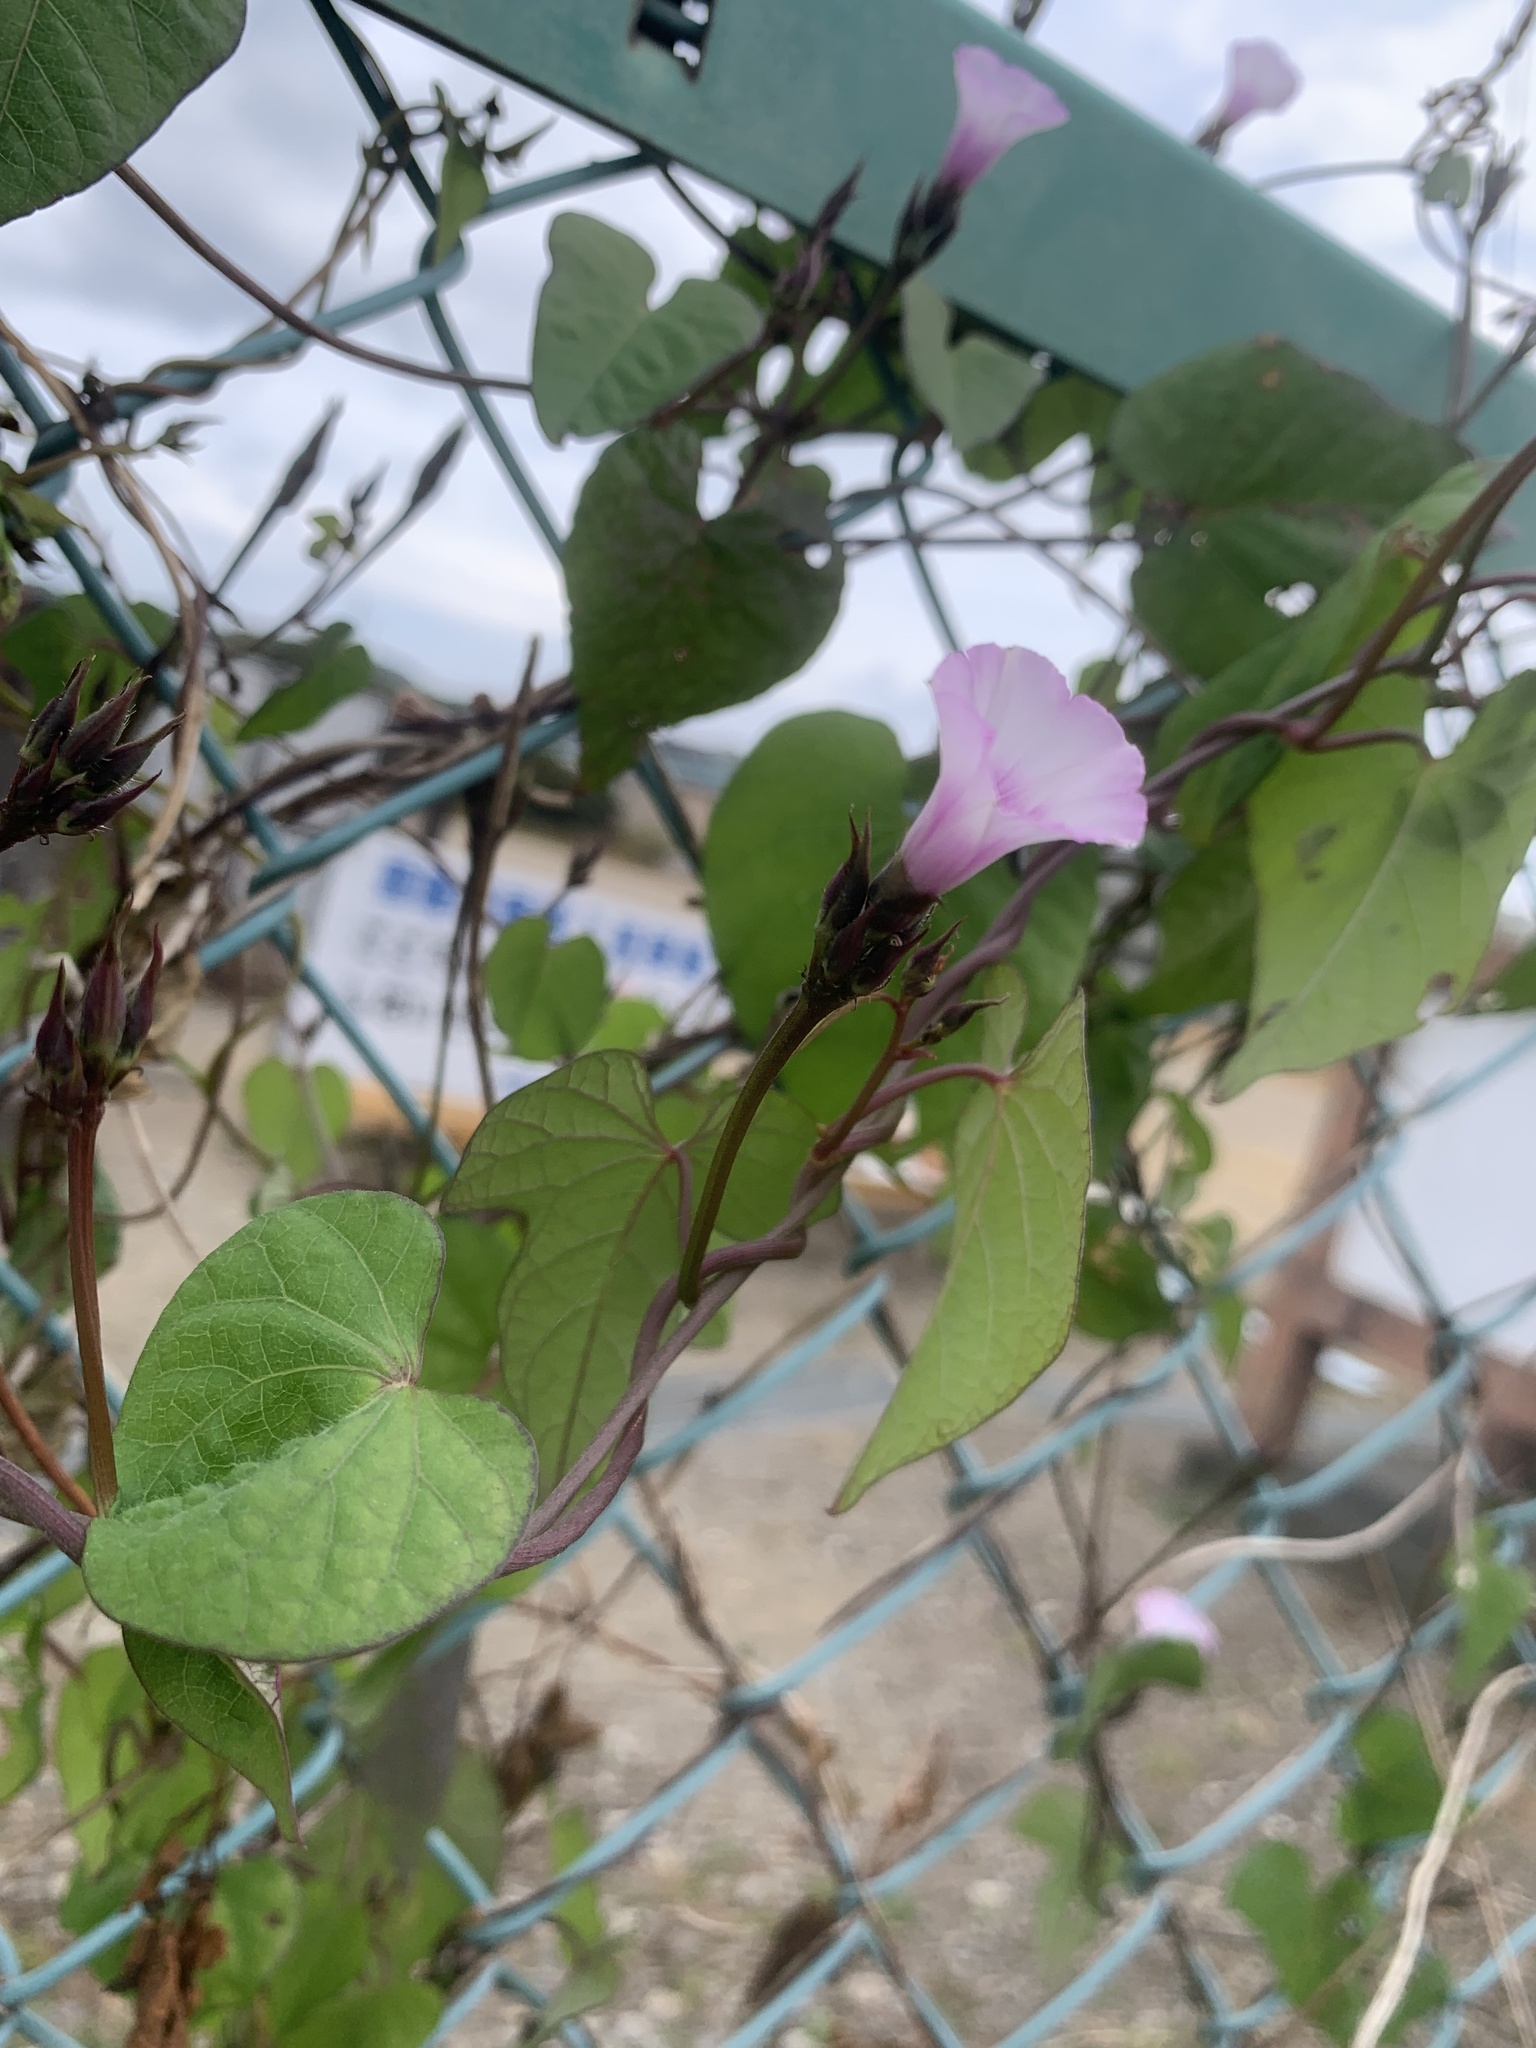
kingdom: Plantae
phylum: Tracheophyta
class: Magnoliopsida
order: Solanales
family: Convolvulaceae
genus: Ipomoea
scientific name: Ipomoea triloba
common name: Little-bell
